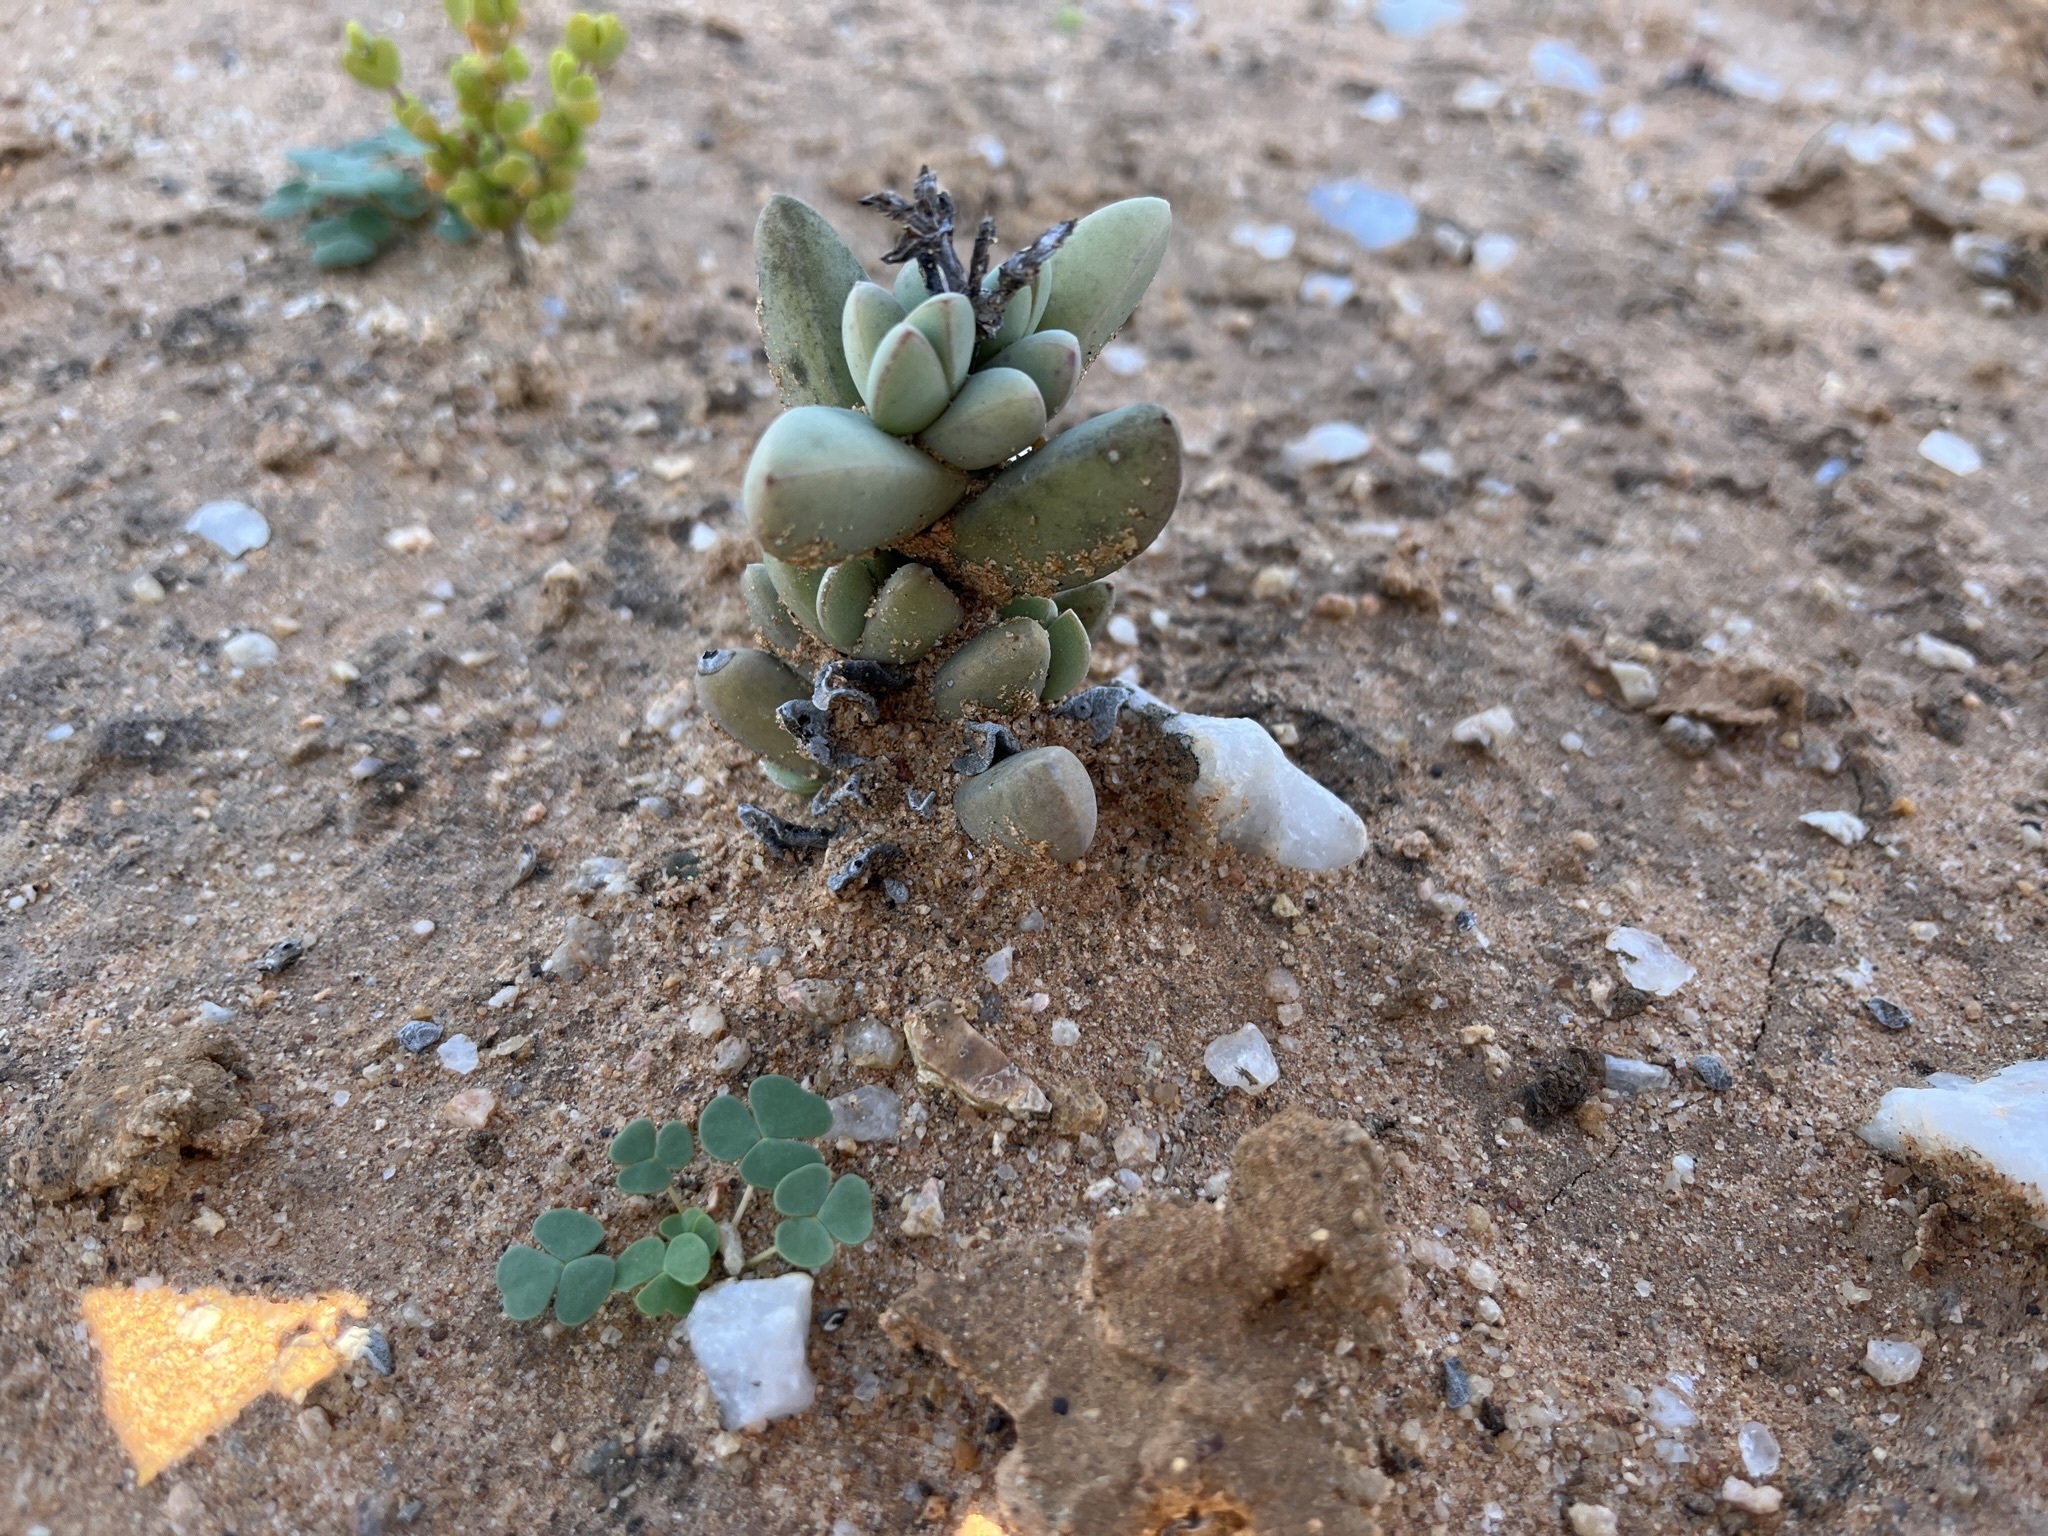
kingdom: Plantae
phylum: Tracheophyta
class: Magnoliopsida
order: Saxifragales
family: Crassulaceae
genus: Crassula
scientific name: Crassula deceptor
